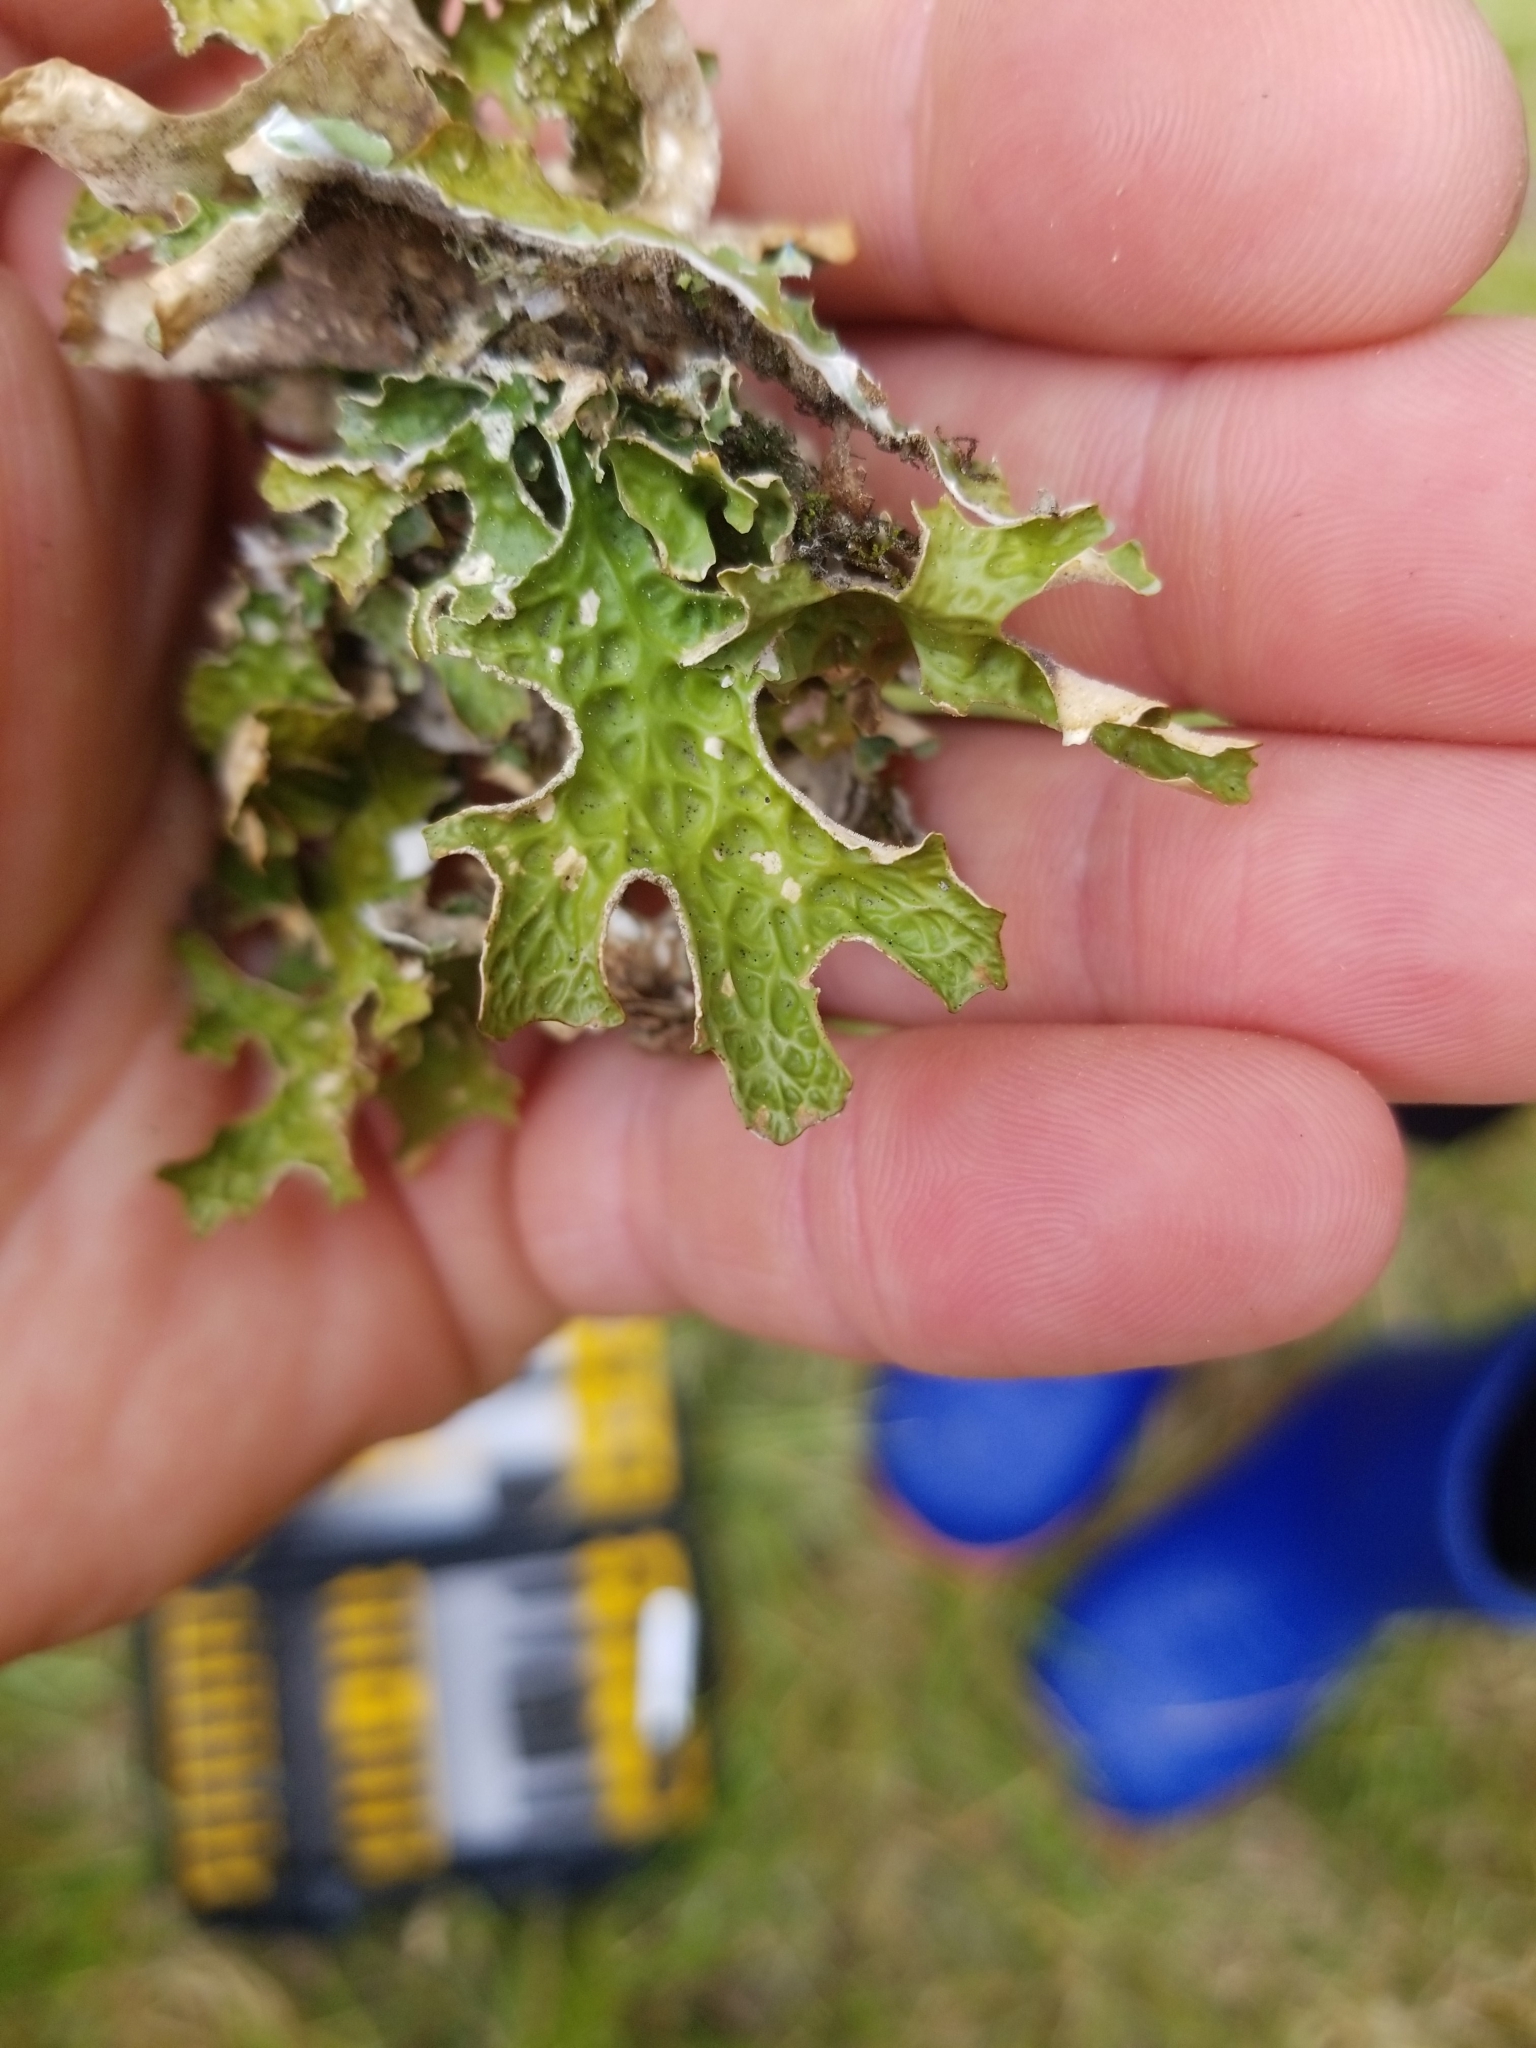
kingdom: Fungi
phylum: Ascomycota
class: Lecanoromycetes
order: Peltigerales
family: Lobariaceae
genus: Lobaria
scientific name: Lobaria pulmonaria
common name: Lungwort
